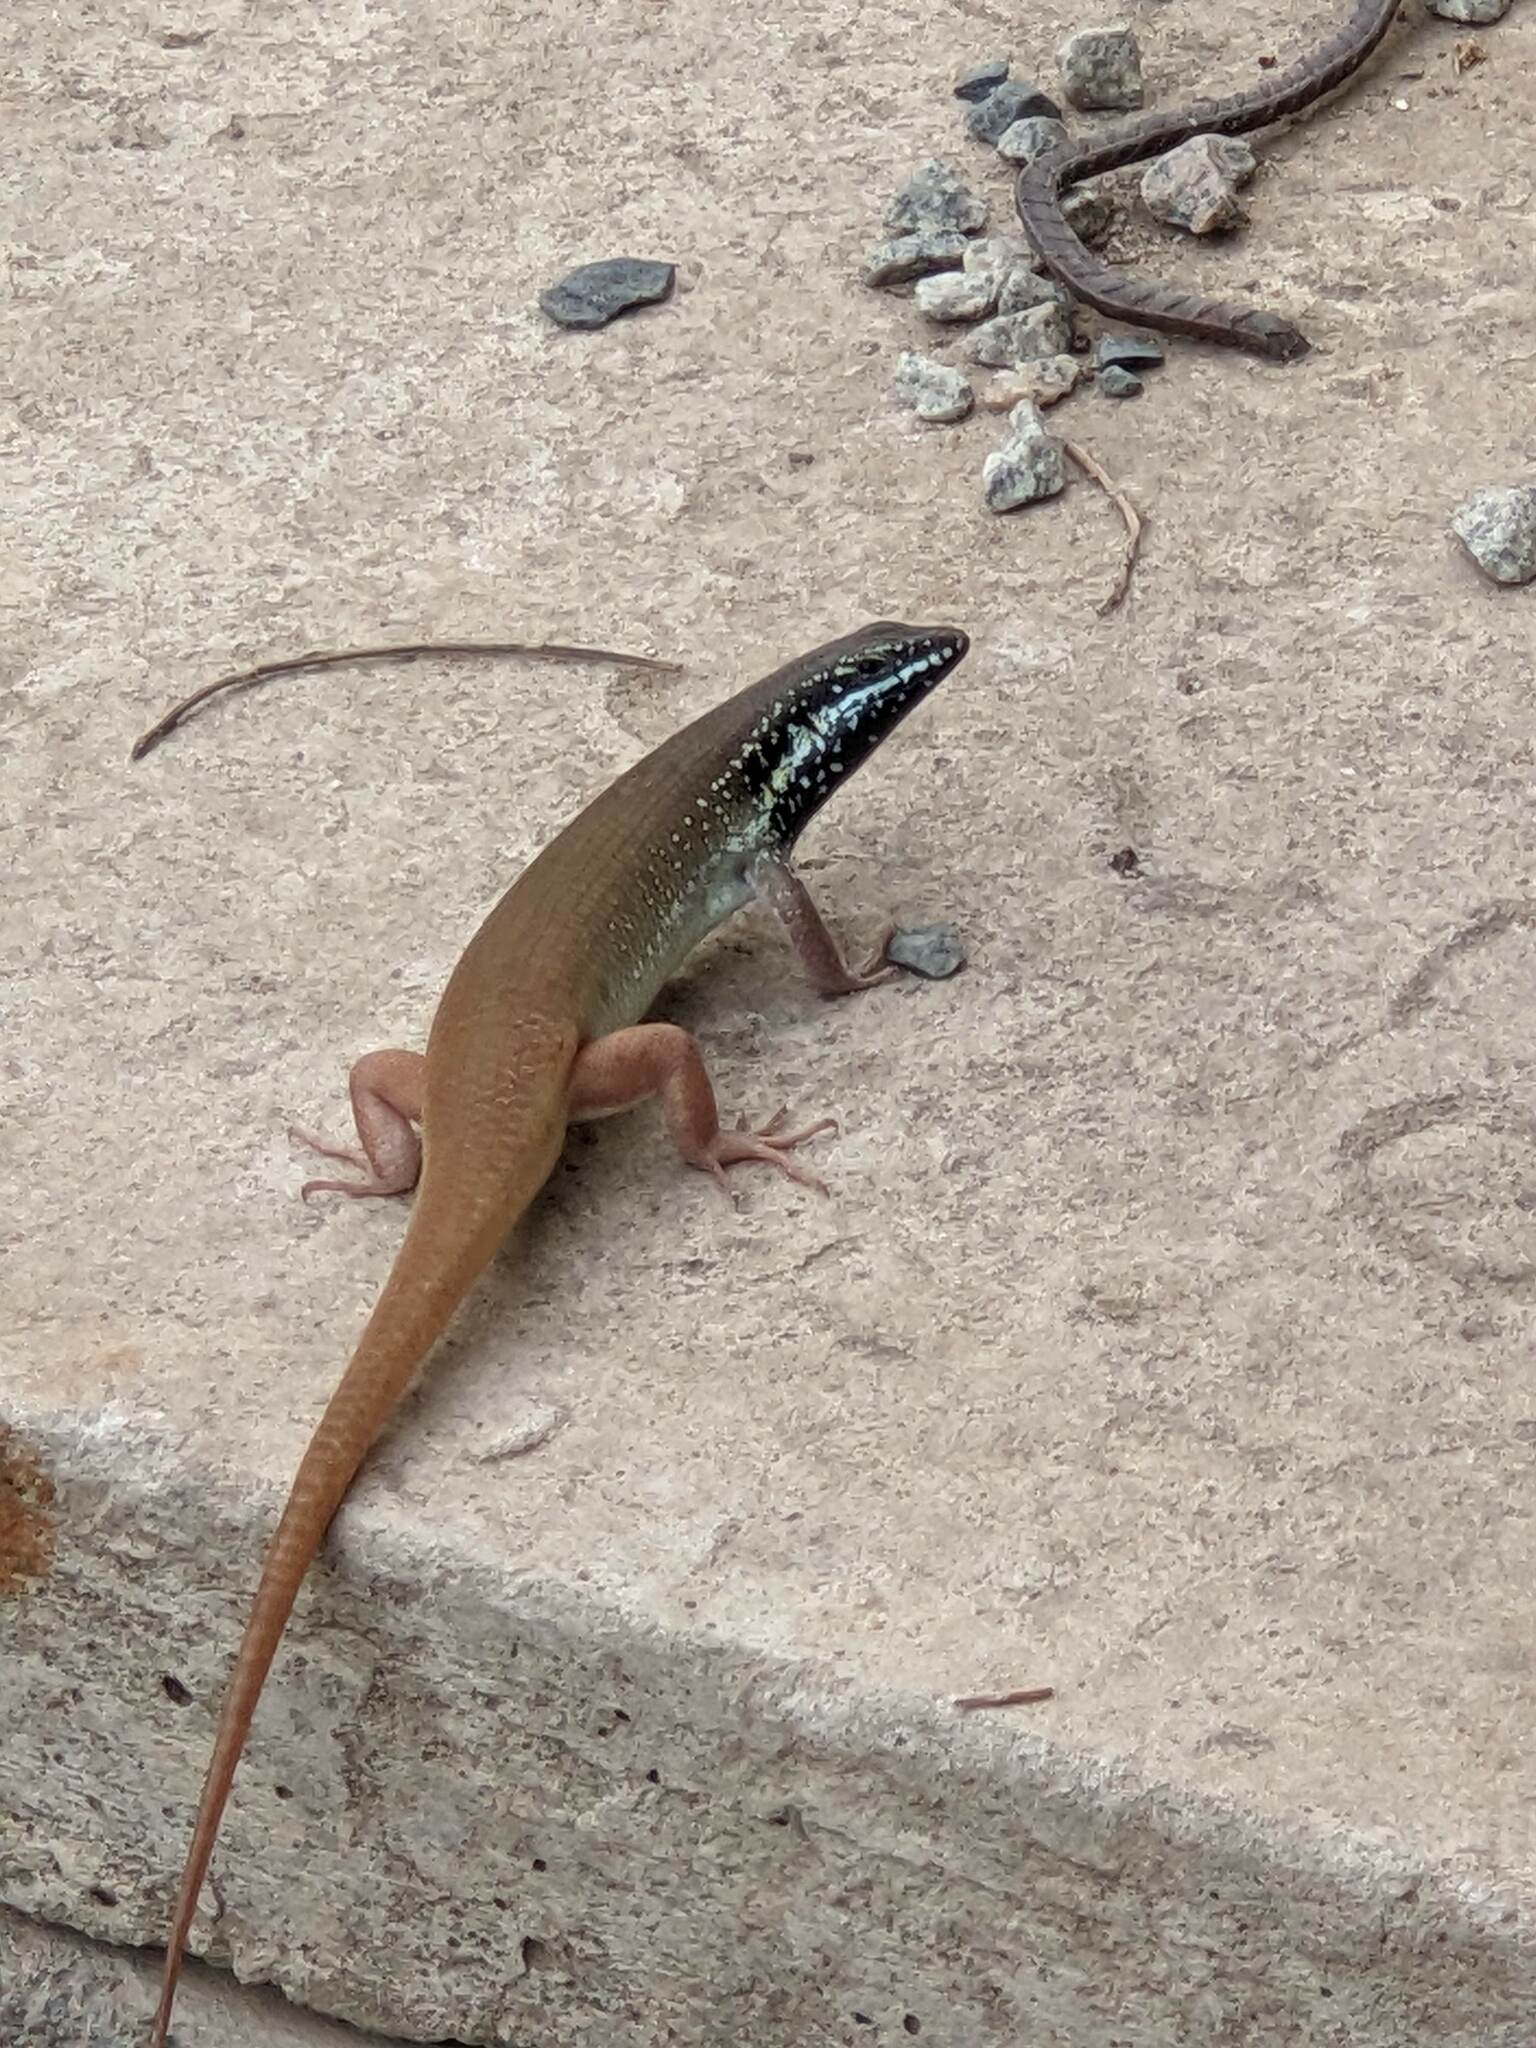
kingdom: Animalia
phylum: Chordata
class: Squamata
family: Scincidae
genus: Trachylepis
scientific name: Trachylepis quinquetaeniata
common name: African five-lined skink
